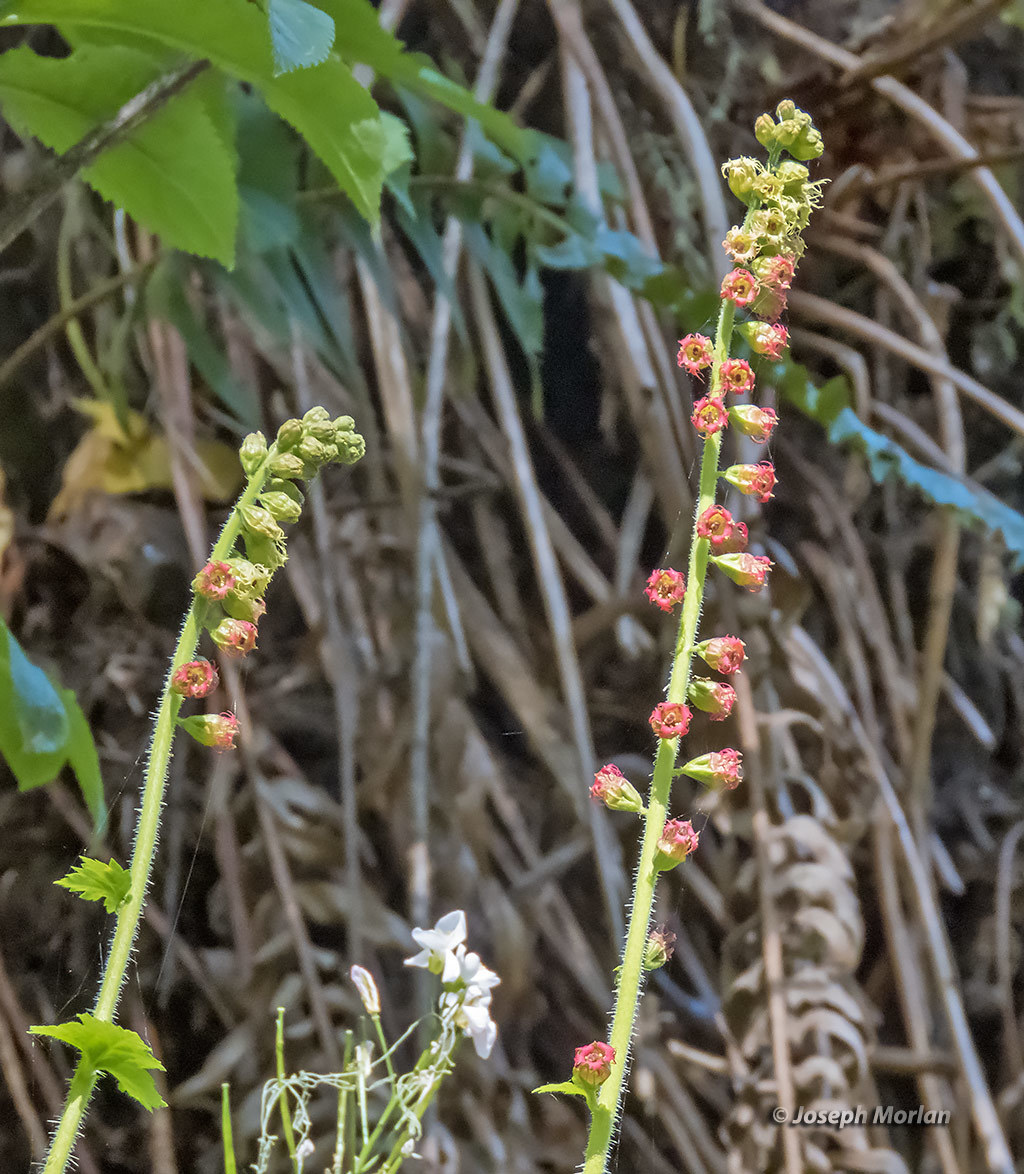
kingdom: Plantae
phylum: Tracheophyta
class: Magnoliopsida
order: Saxifragales
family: Saxifragaceae
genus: Tellima
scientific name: Tellima grandiflora
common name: Fringecups
